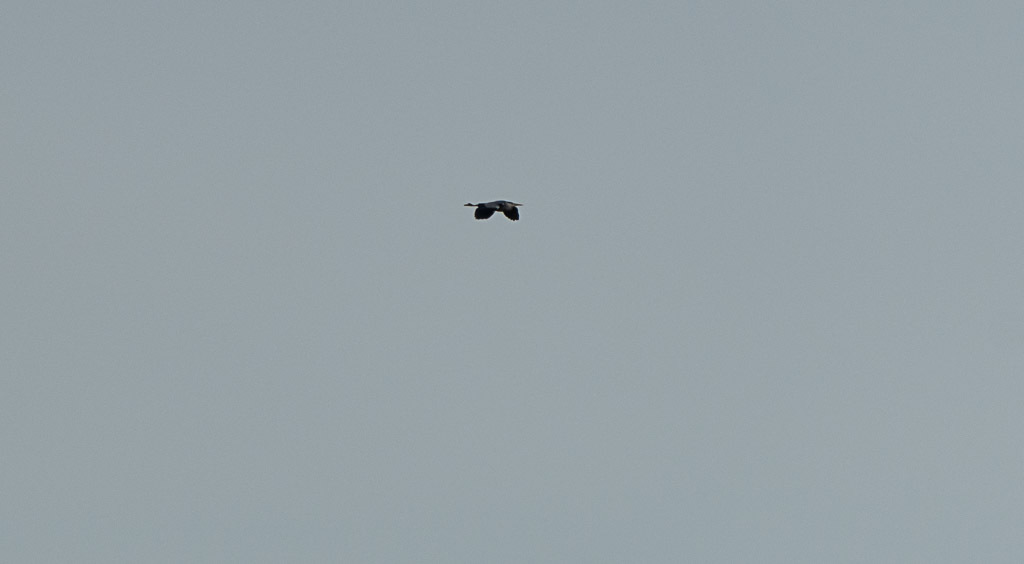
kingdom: Animalia
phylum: Chordata
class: Aves
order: Pelecaniformes
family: Ardeidae
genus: Ardea
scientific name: Ardea cinerea
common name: Grey heron
